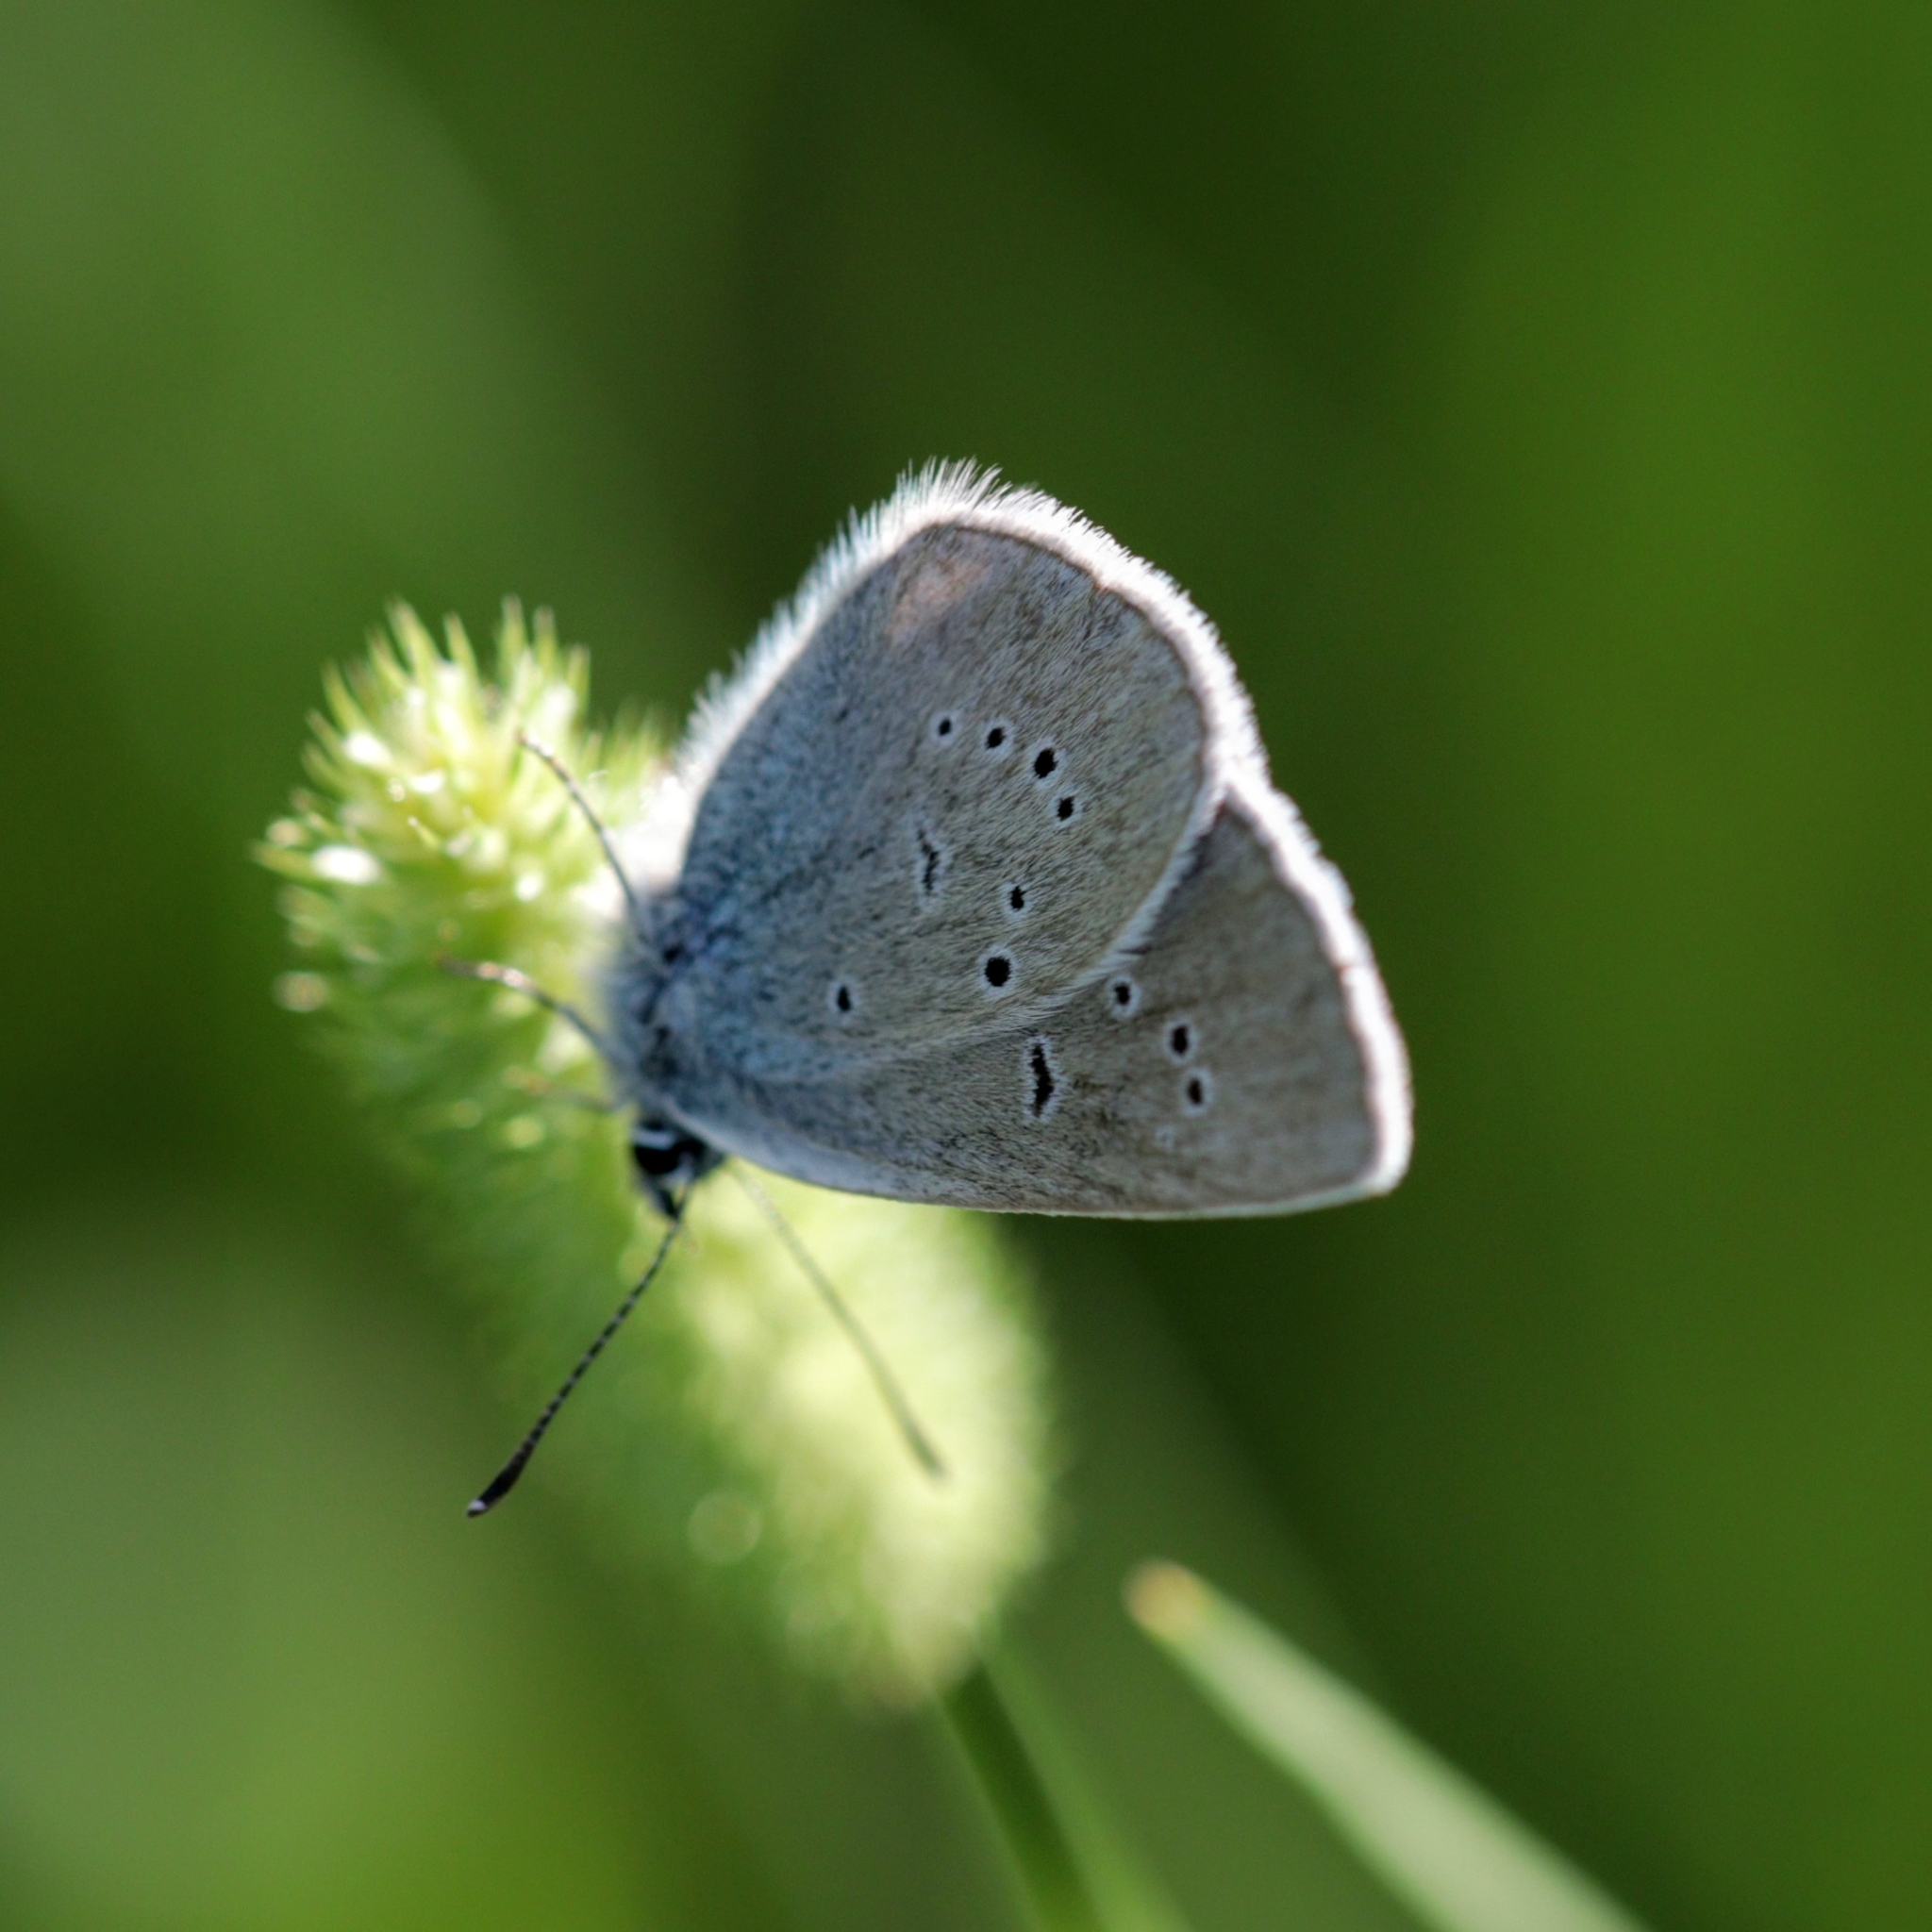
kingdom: Animalia
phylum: Arthropoda
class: Insecta
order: Lepidoptera
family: Lycaenidae
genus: Cyaniris
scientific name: Cyaniris semiargus
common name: Mazarine blue
